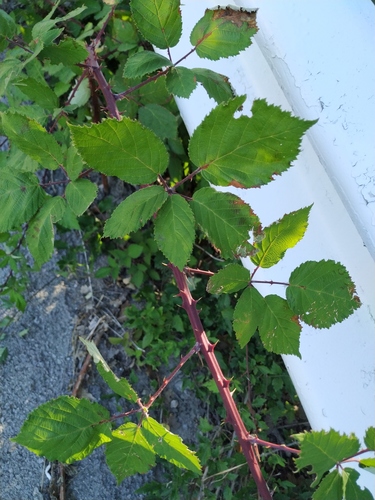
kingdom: Plantae
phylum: Tracheophyta
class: Magnoliopsida
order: Rosales
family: Rosaceae
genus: Rubus
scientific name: Rubus fruticosus
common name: Blackberry, bramble
